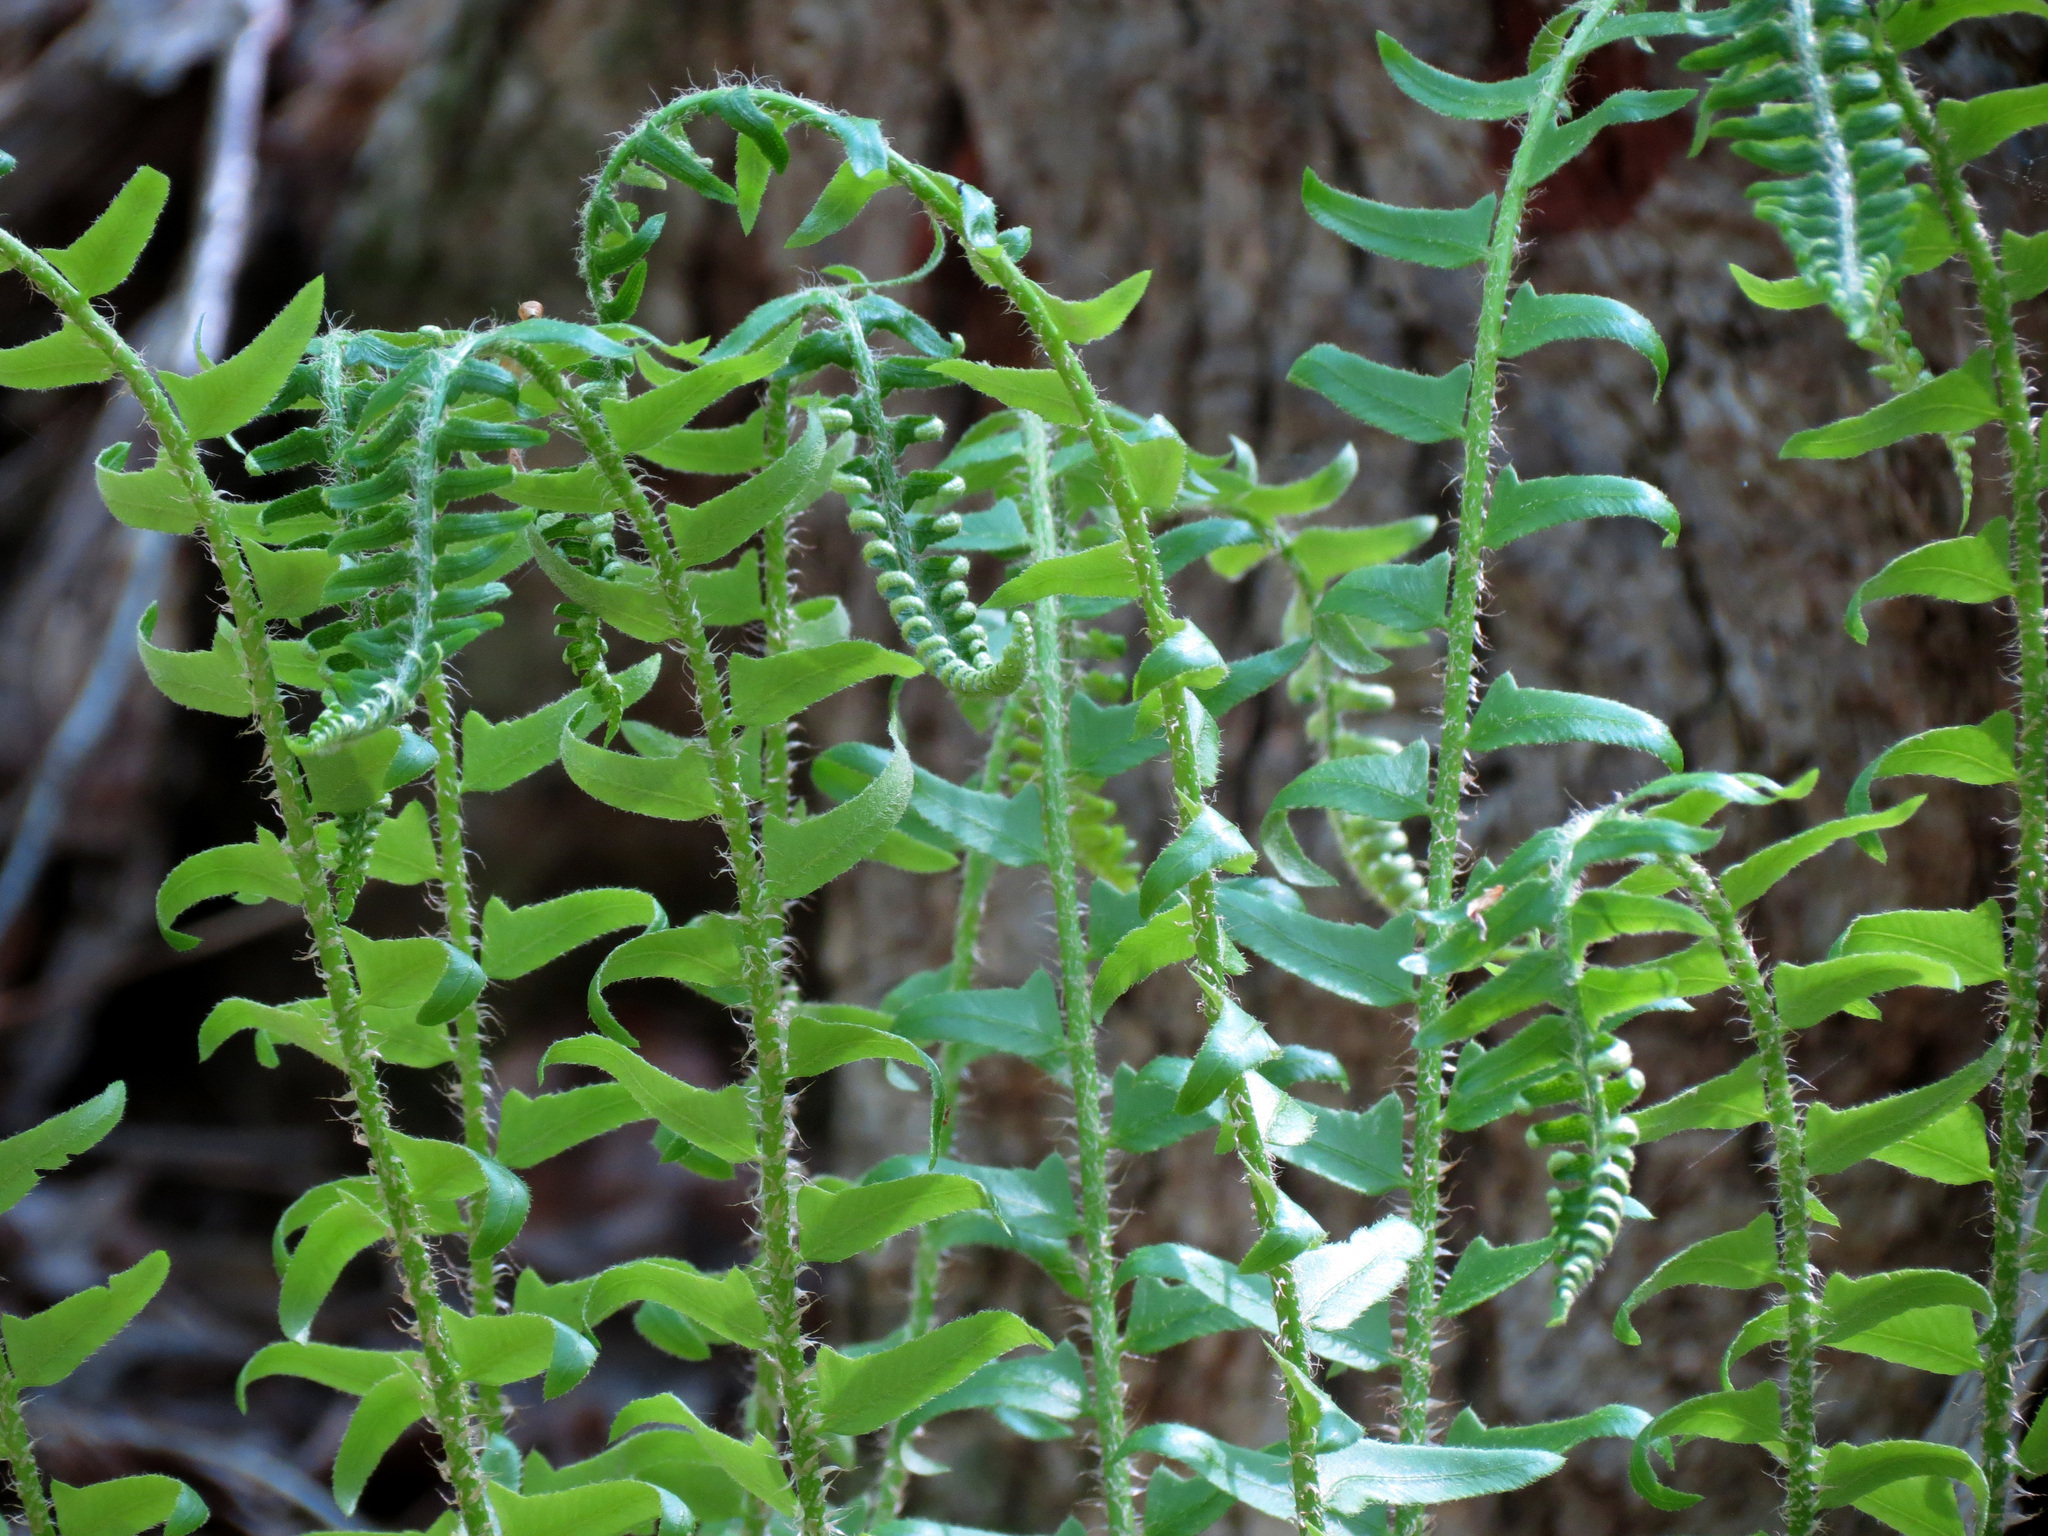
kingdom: Plantae
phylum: Tracheophyta
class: Polypodiopsida
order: Polypodiales
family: Dryopteridaceae
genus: Polystichum
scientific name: Polystichum acrostichoides
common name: Christmas fern
